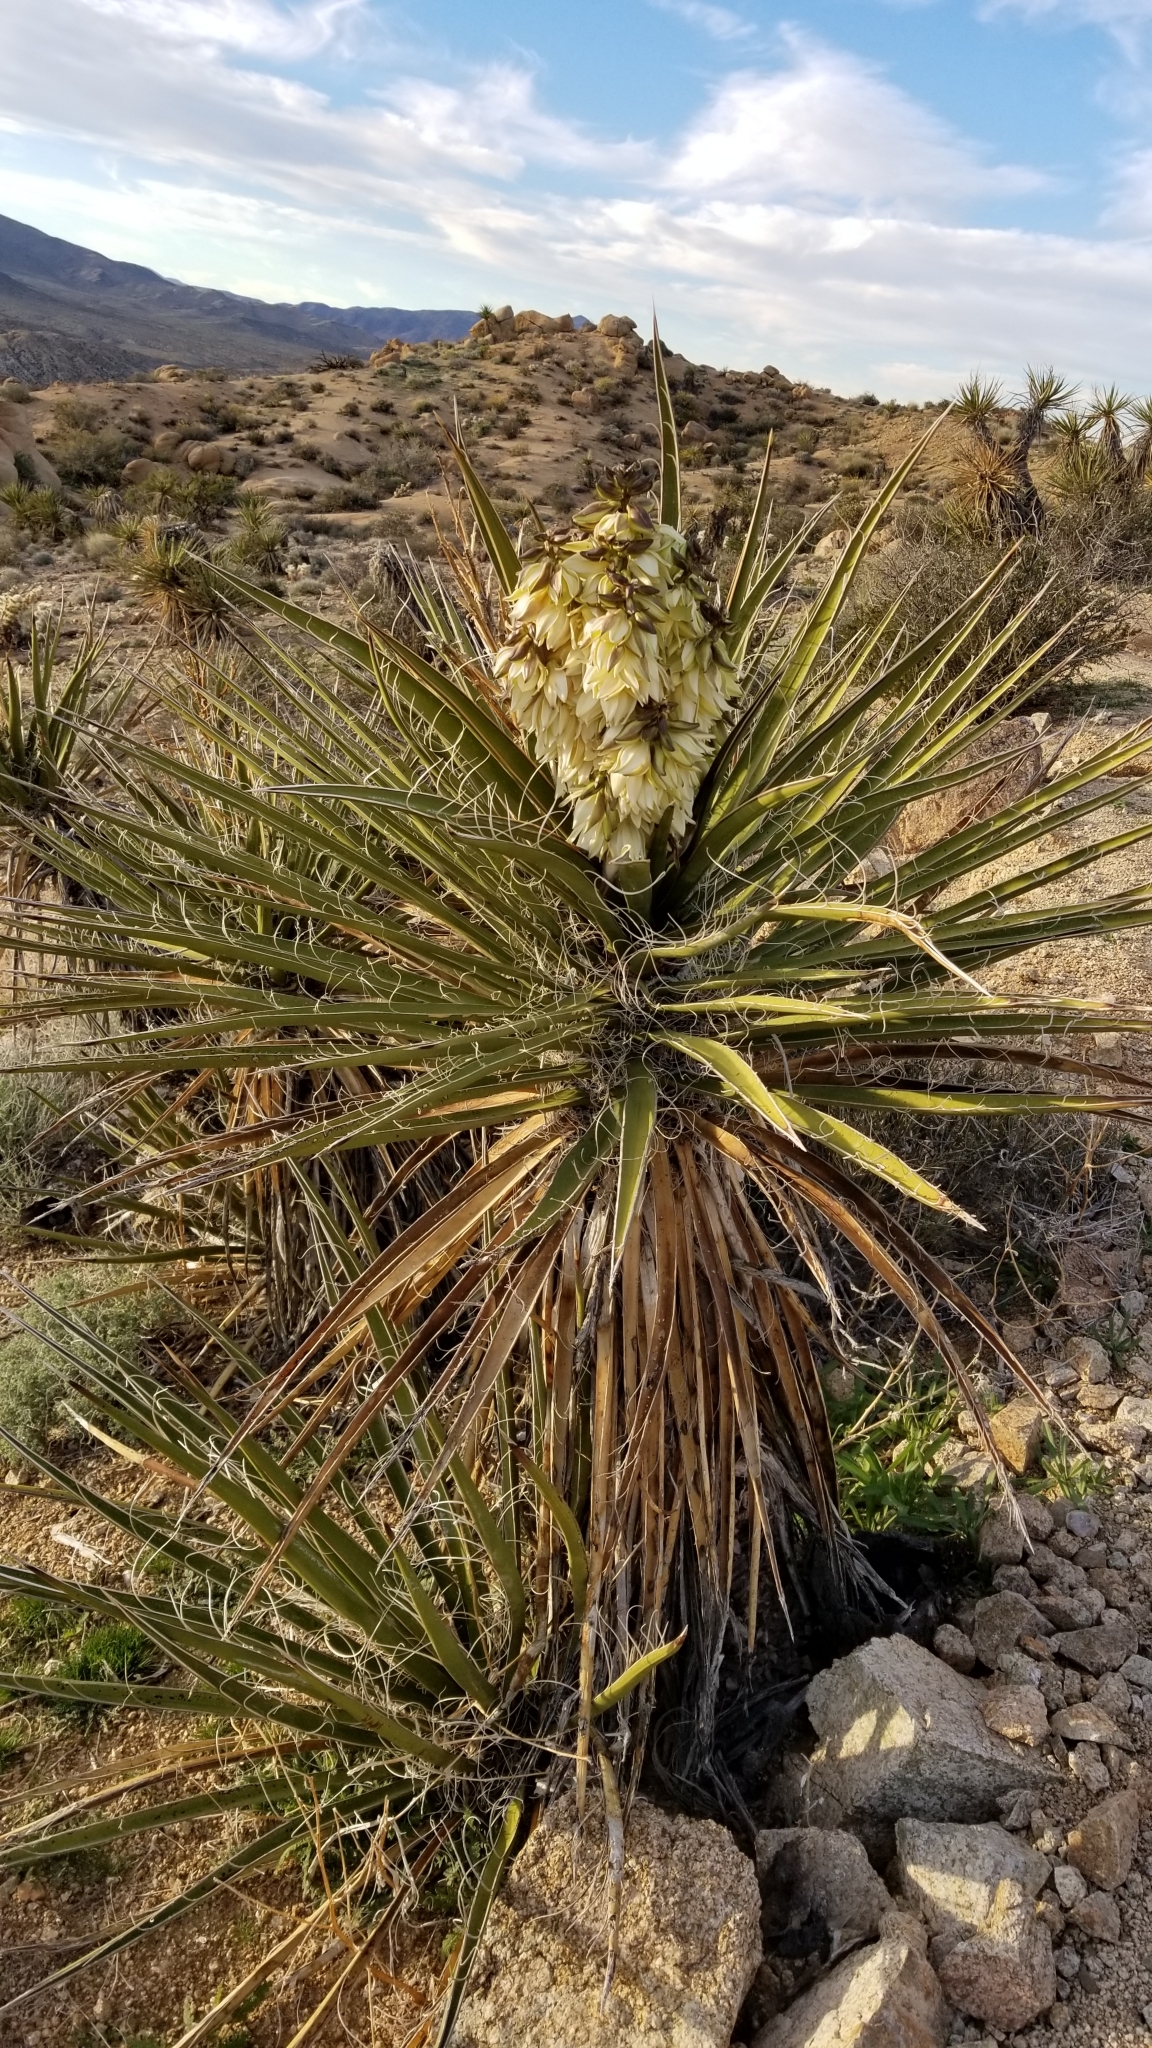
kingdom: Plantae
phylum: Tracheophyta
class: Liliopsida
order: Asparagales
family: Asparagaceae
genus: Yucca
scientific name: Yucca schidigera
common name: Mojave yucca
